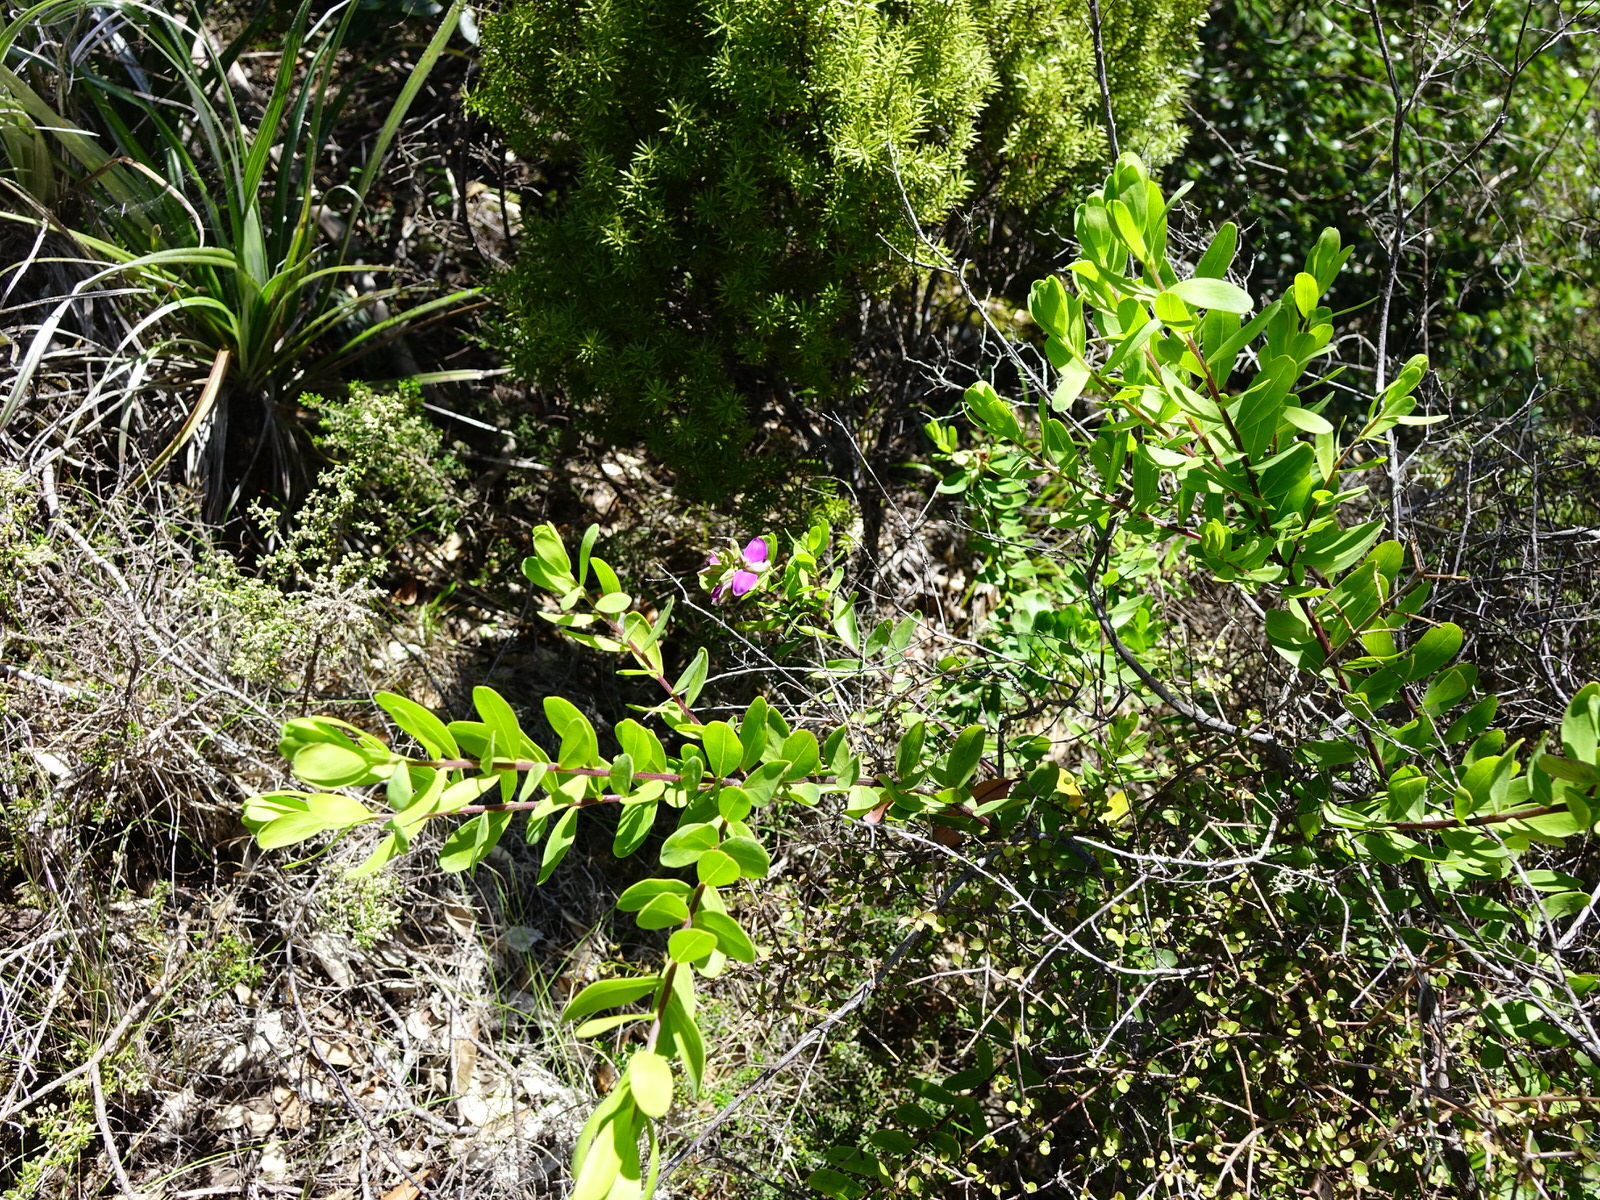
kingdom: Plantae
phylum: Tracheophyta
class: Magnoliopsida
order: Fabales
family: Polygalaceae
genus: Polygala
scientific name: Polygala myrtifolia
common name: Myrtle-leaf milkwort
